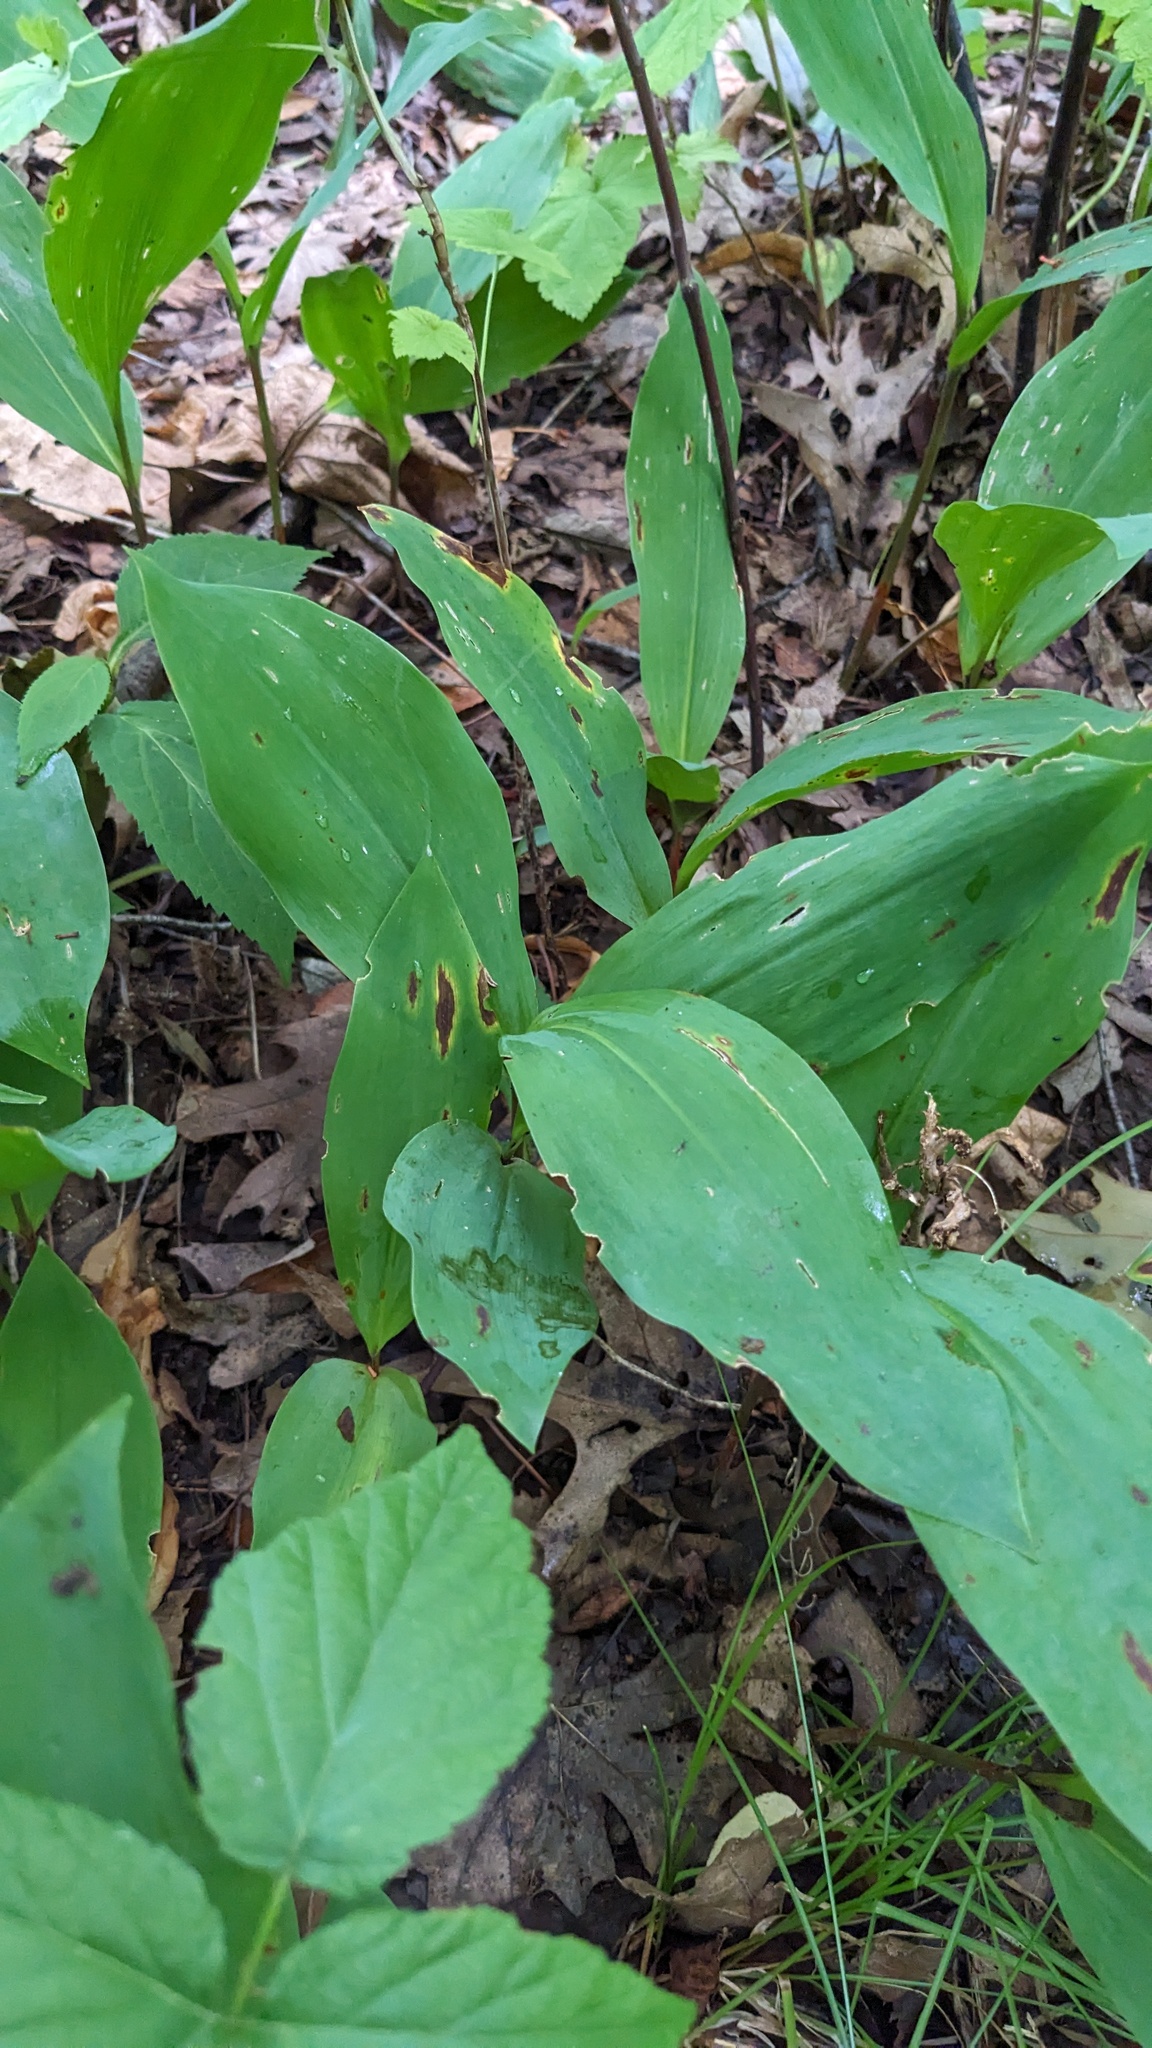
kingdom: Plantae
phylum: Tracheophyta
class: Liliopsida
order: Asparagales
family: Asparagaceae
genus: Convallaria
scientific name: Convallaria majalis
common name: Lily-of-the-valley
